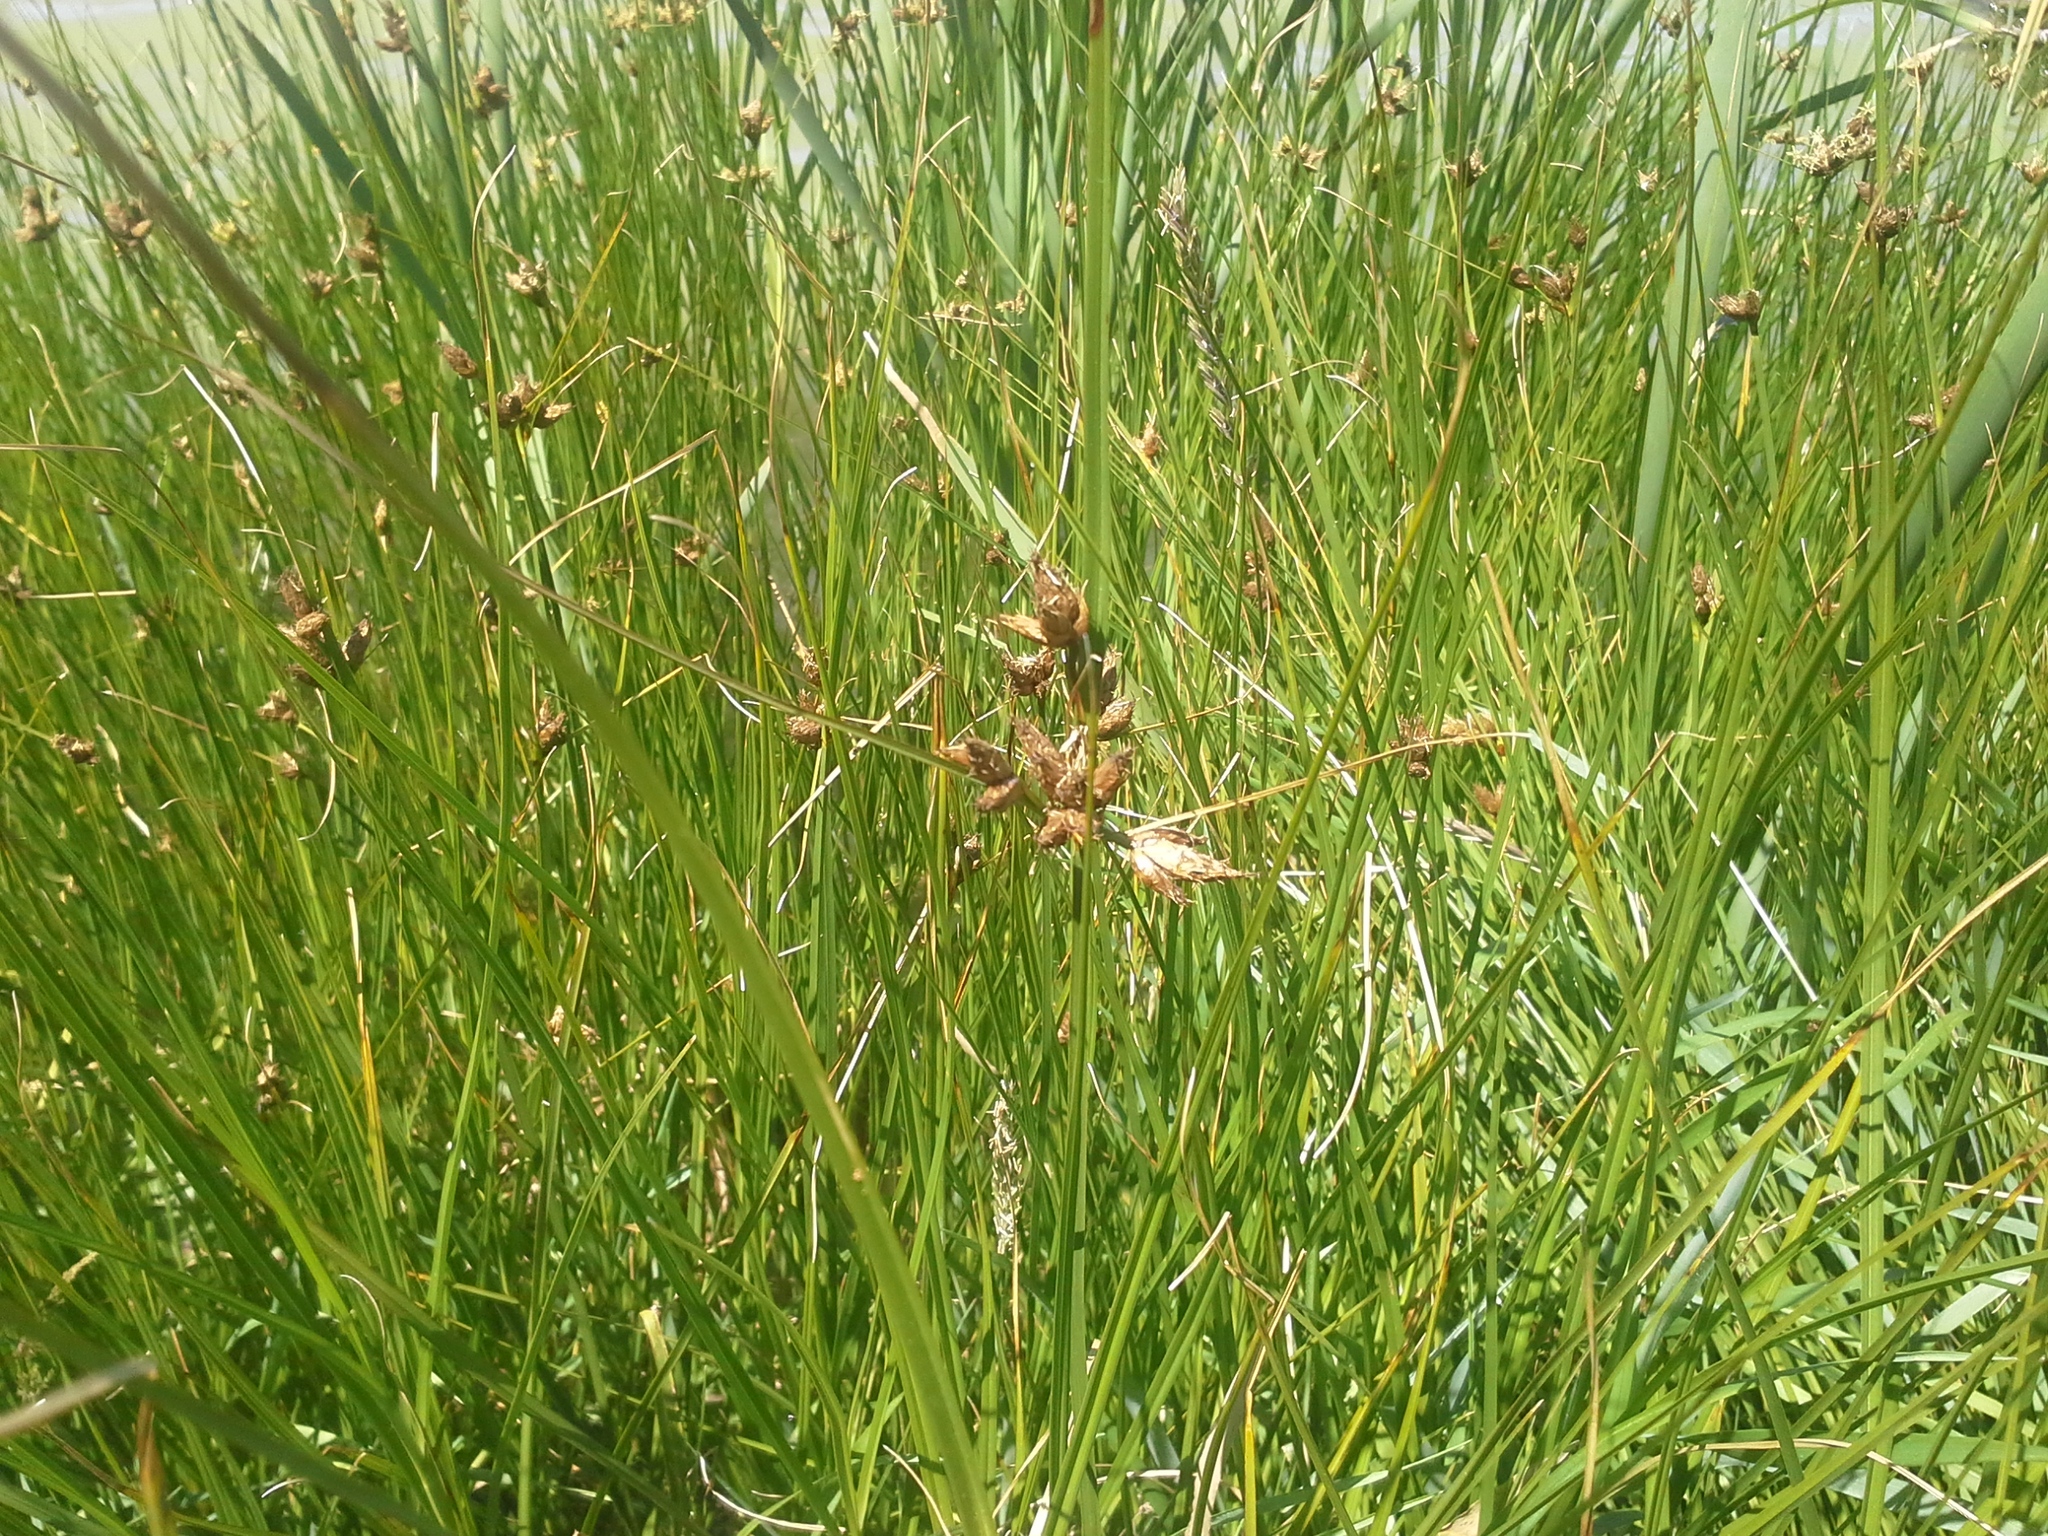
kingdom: Plantae
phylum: Tracheophyta
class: Liliopsida
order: Poales
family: Cyperaceae
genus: Bolboschoenus
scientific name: Bolboschoenus caldwellii
